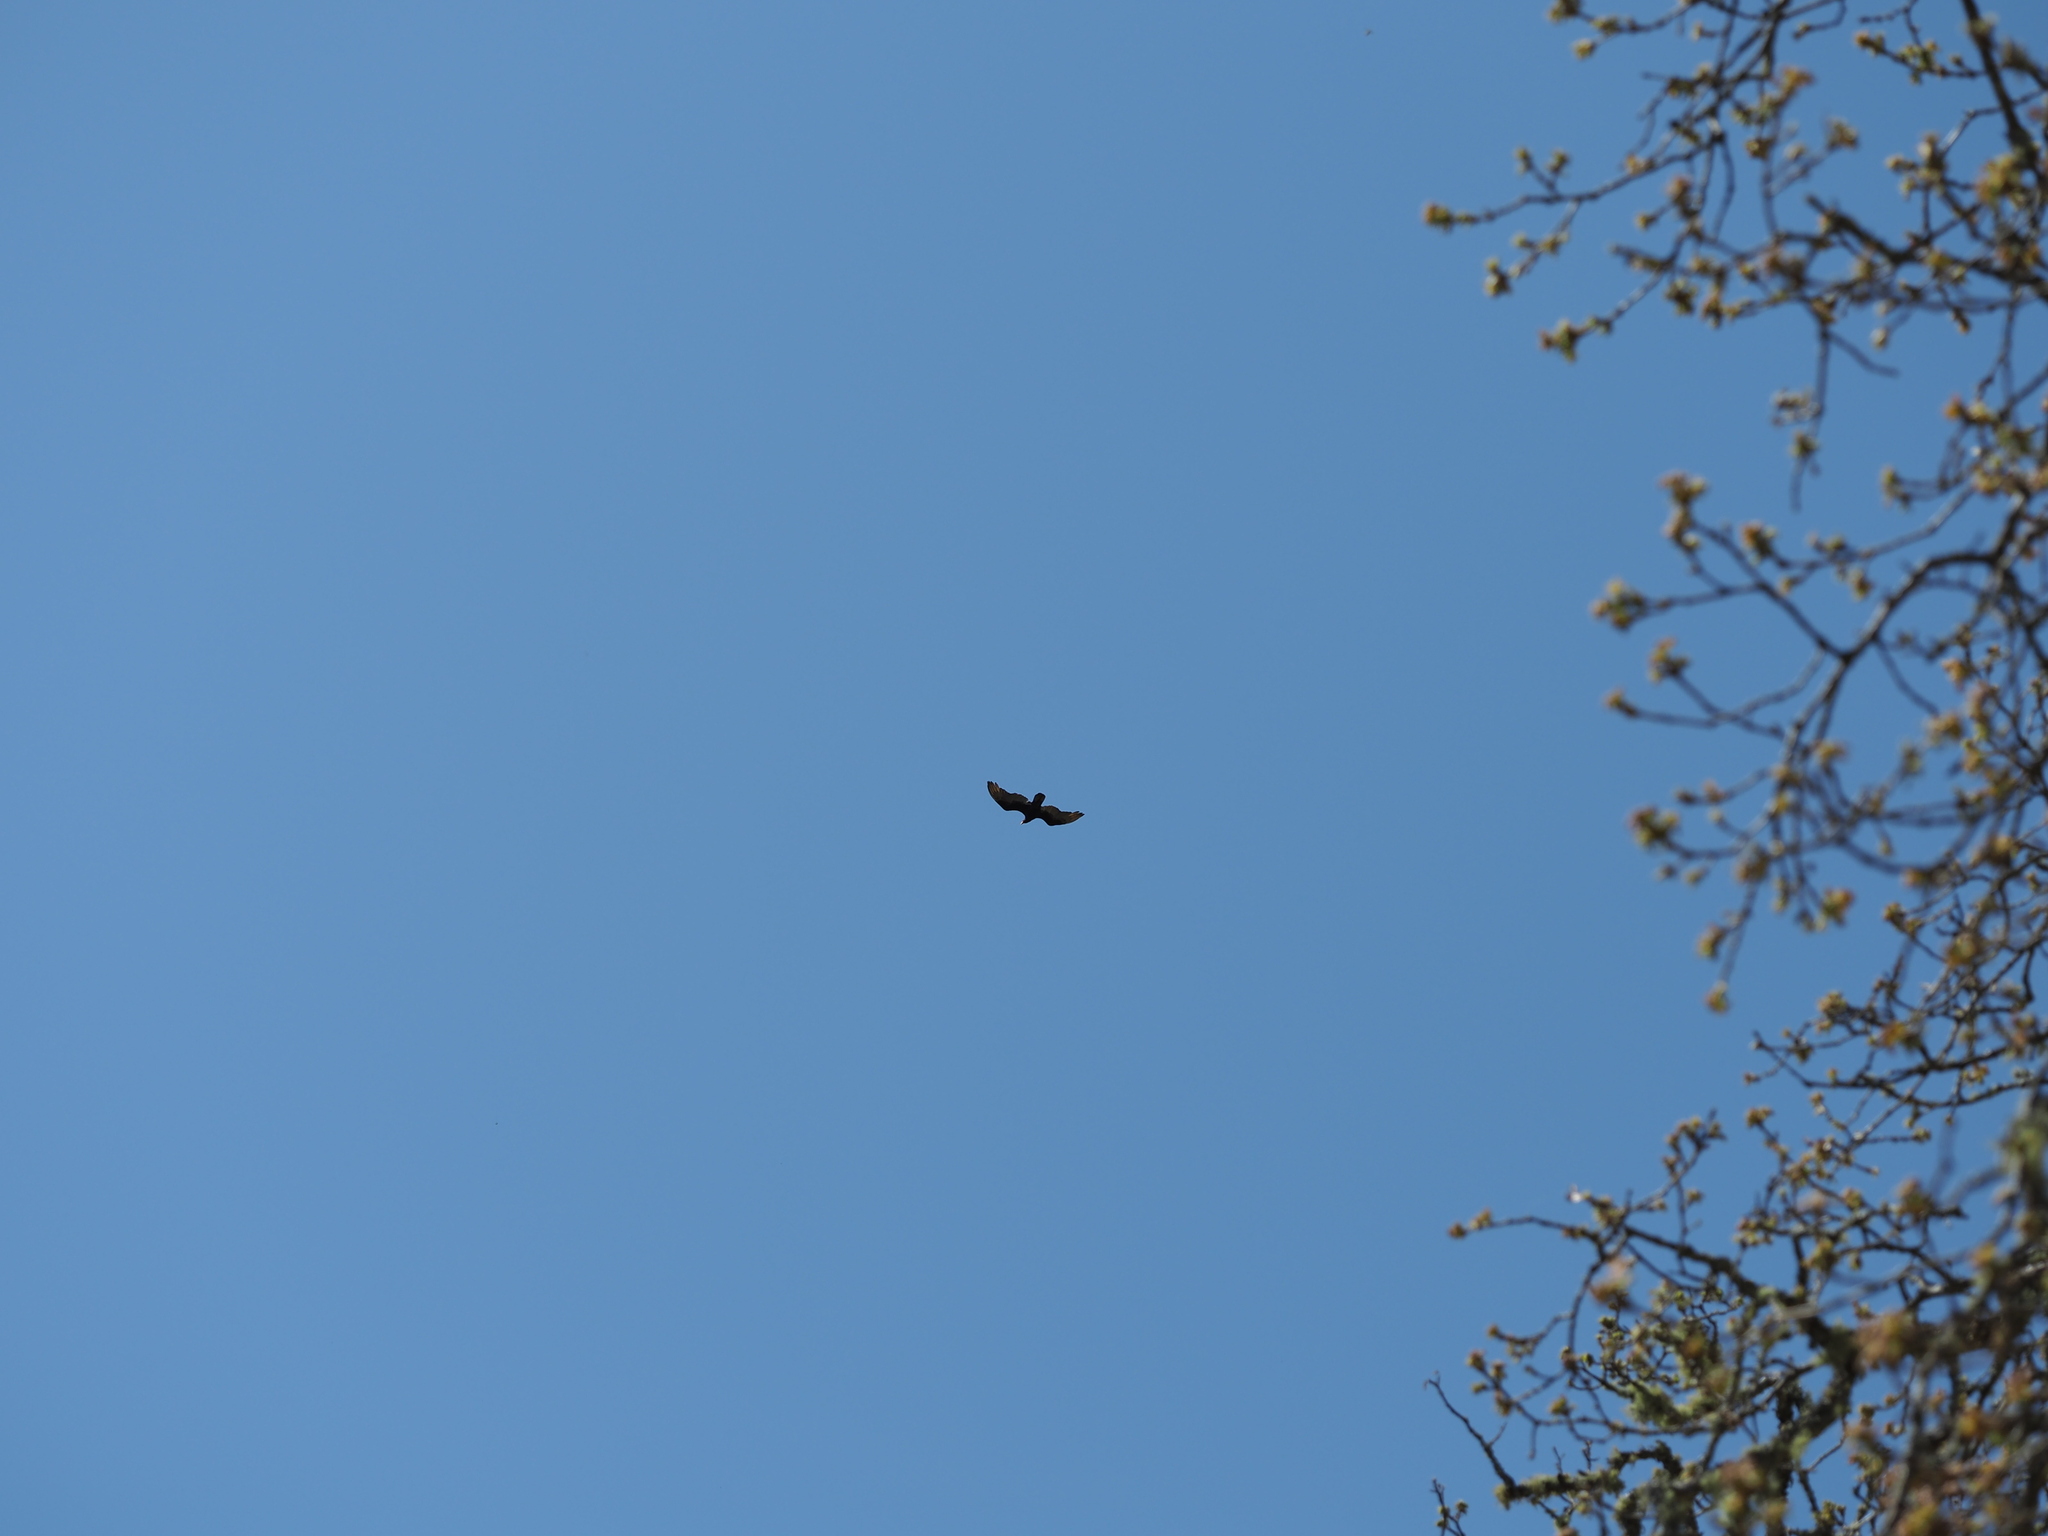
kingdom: Animalia
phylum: Chordata
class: Aves
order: Accipitriformes
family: Cathartidae
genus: Cathartes
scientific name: Cathartes aura
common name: Turkey vulture
